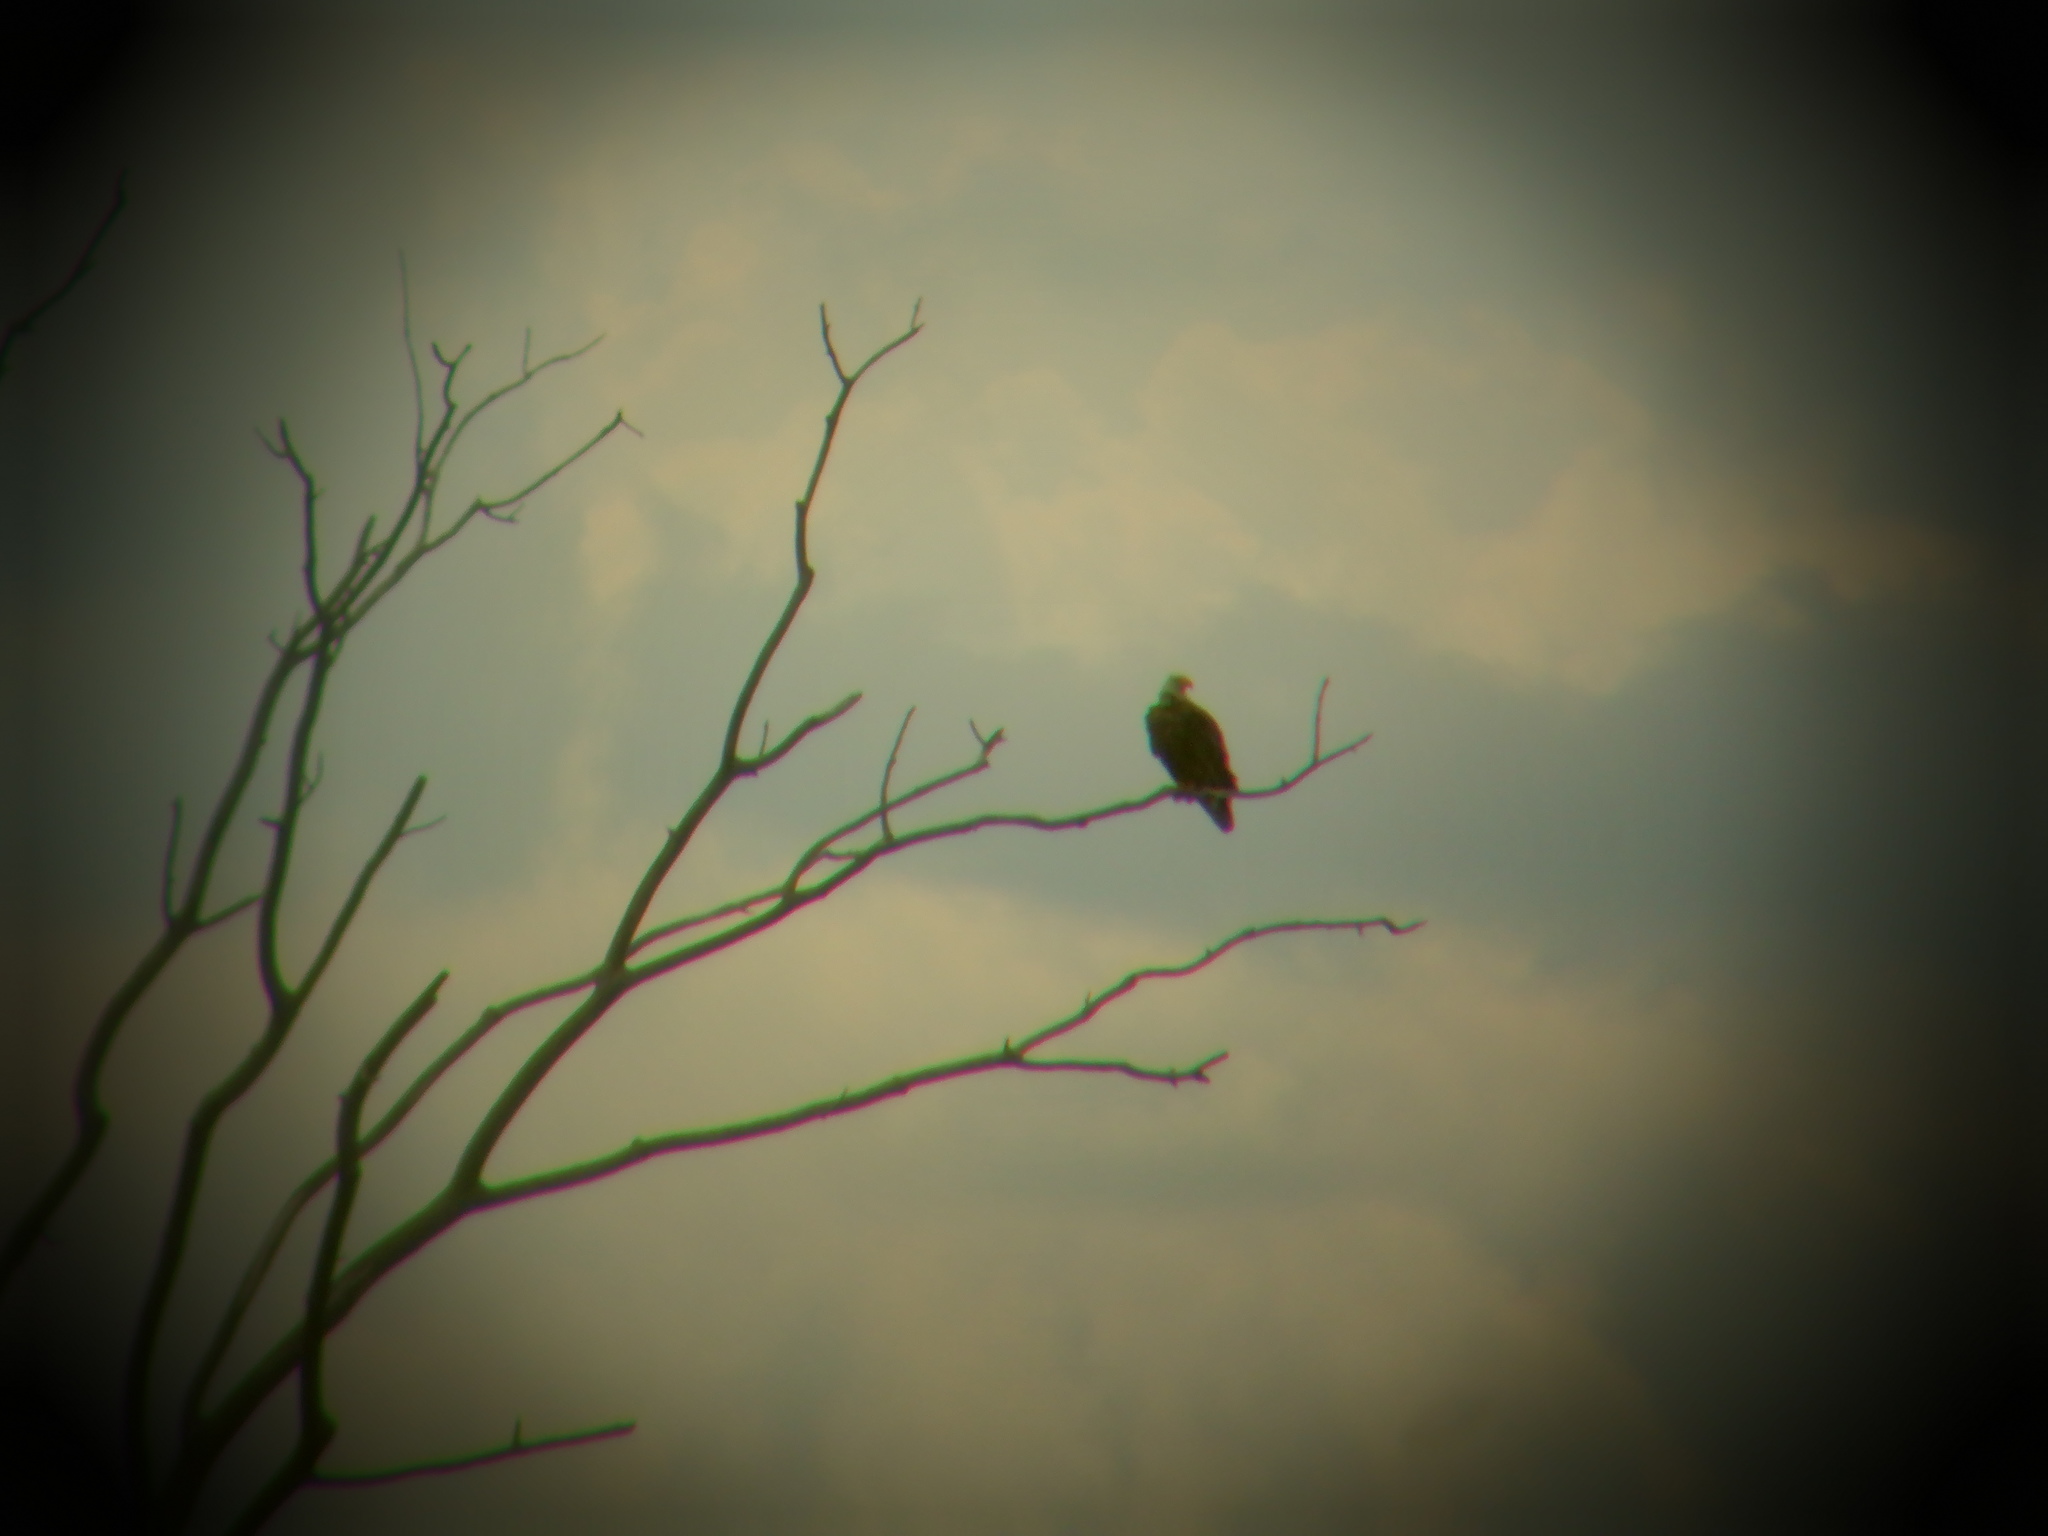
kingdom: Animalia
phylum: Chordata
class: Aves
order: Accipitriformes
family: Accipitridae
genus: Haliaeetus
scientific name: Haliaeetus leucocephalus
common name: Bald eagle
